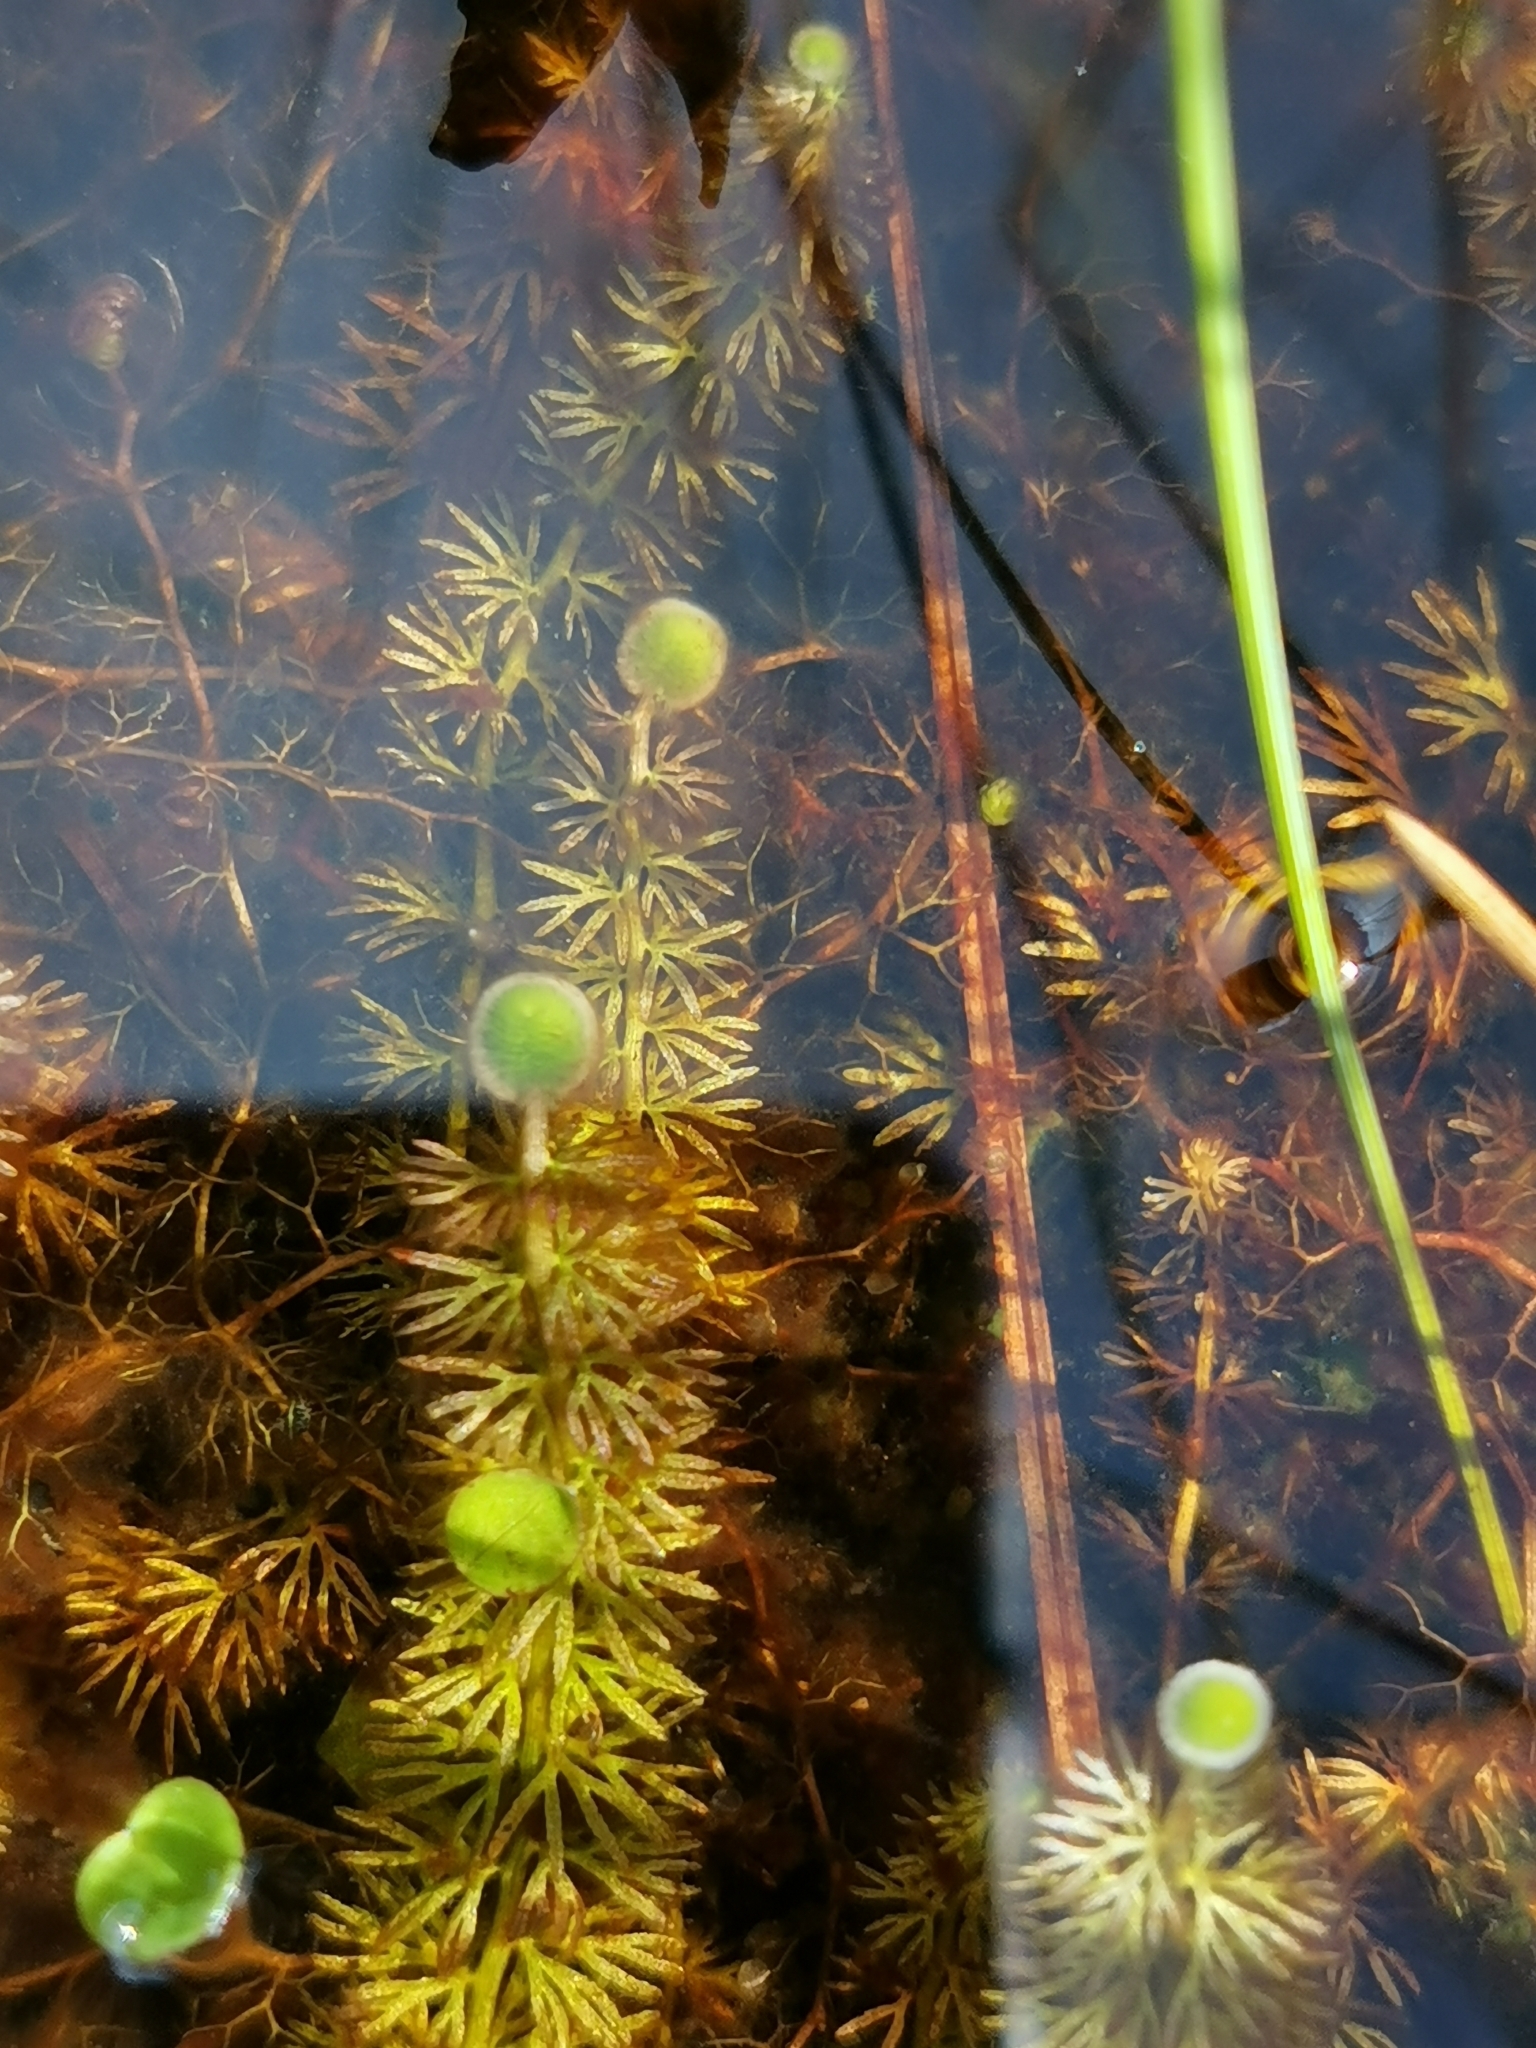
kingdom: Plantae
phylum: Tracheophyta
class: Magnoliopsida
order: Lamiales
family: Lentibulariaceae
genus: Utricularia
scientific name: Utricularia intermedia
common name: Intermediate bladderwort
